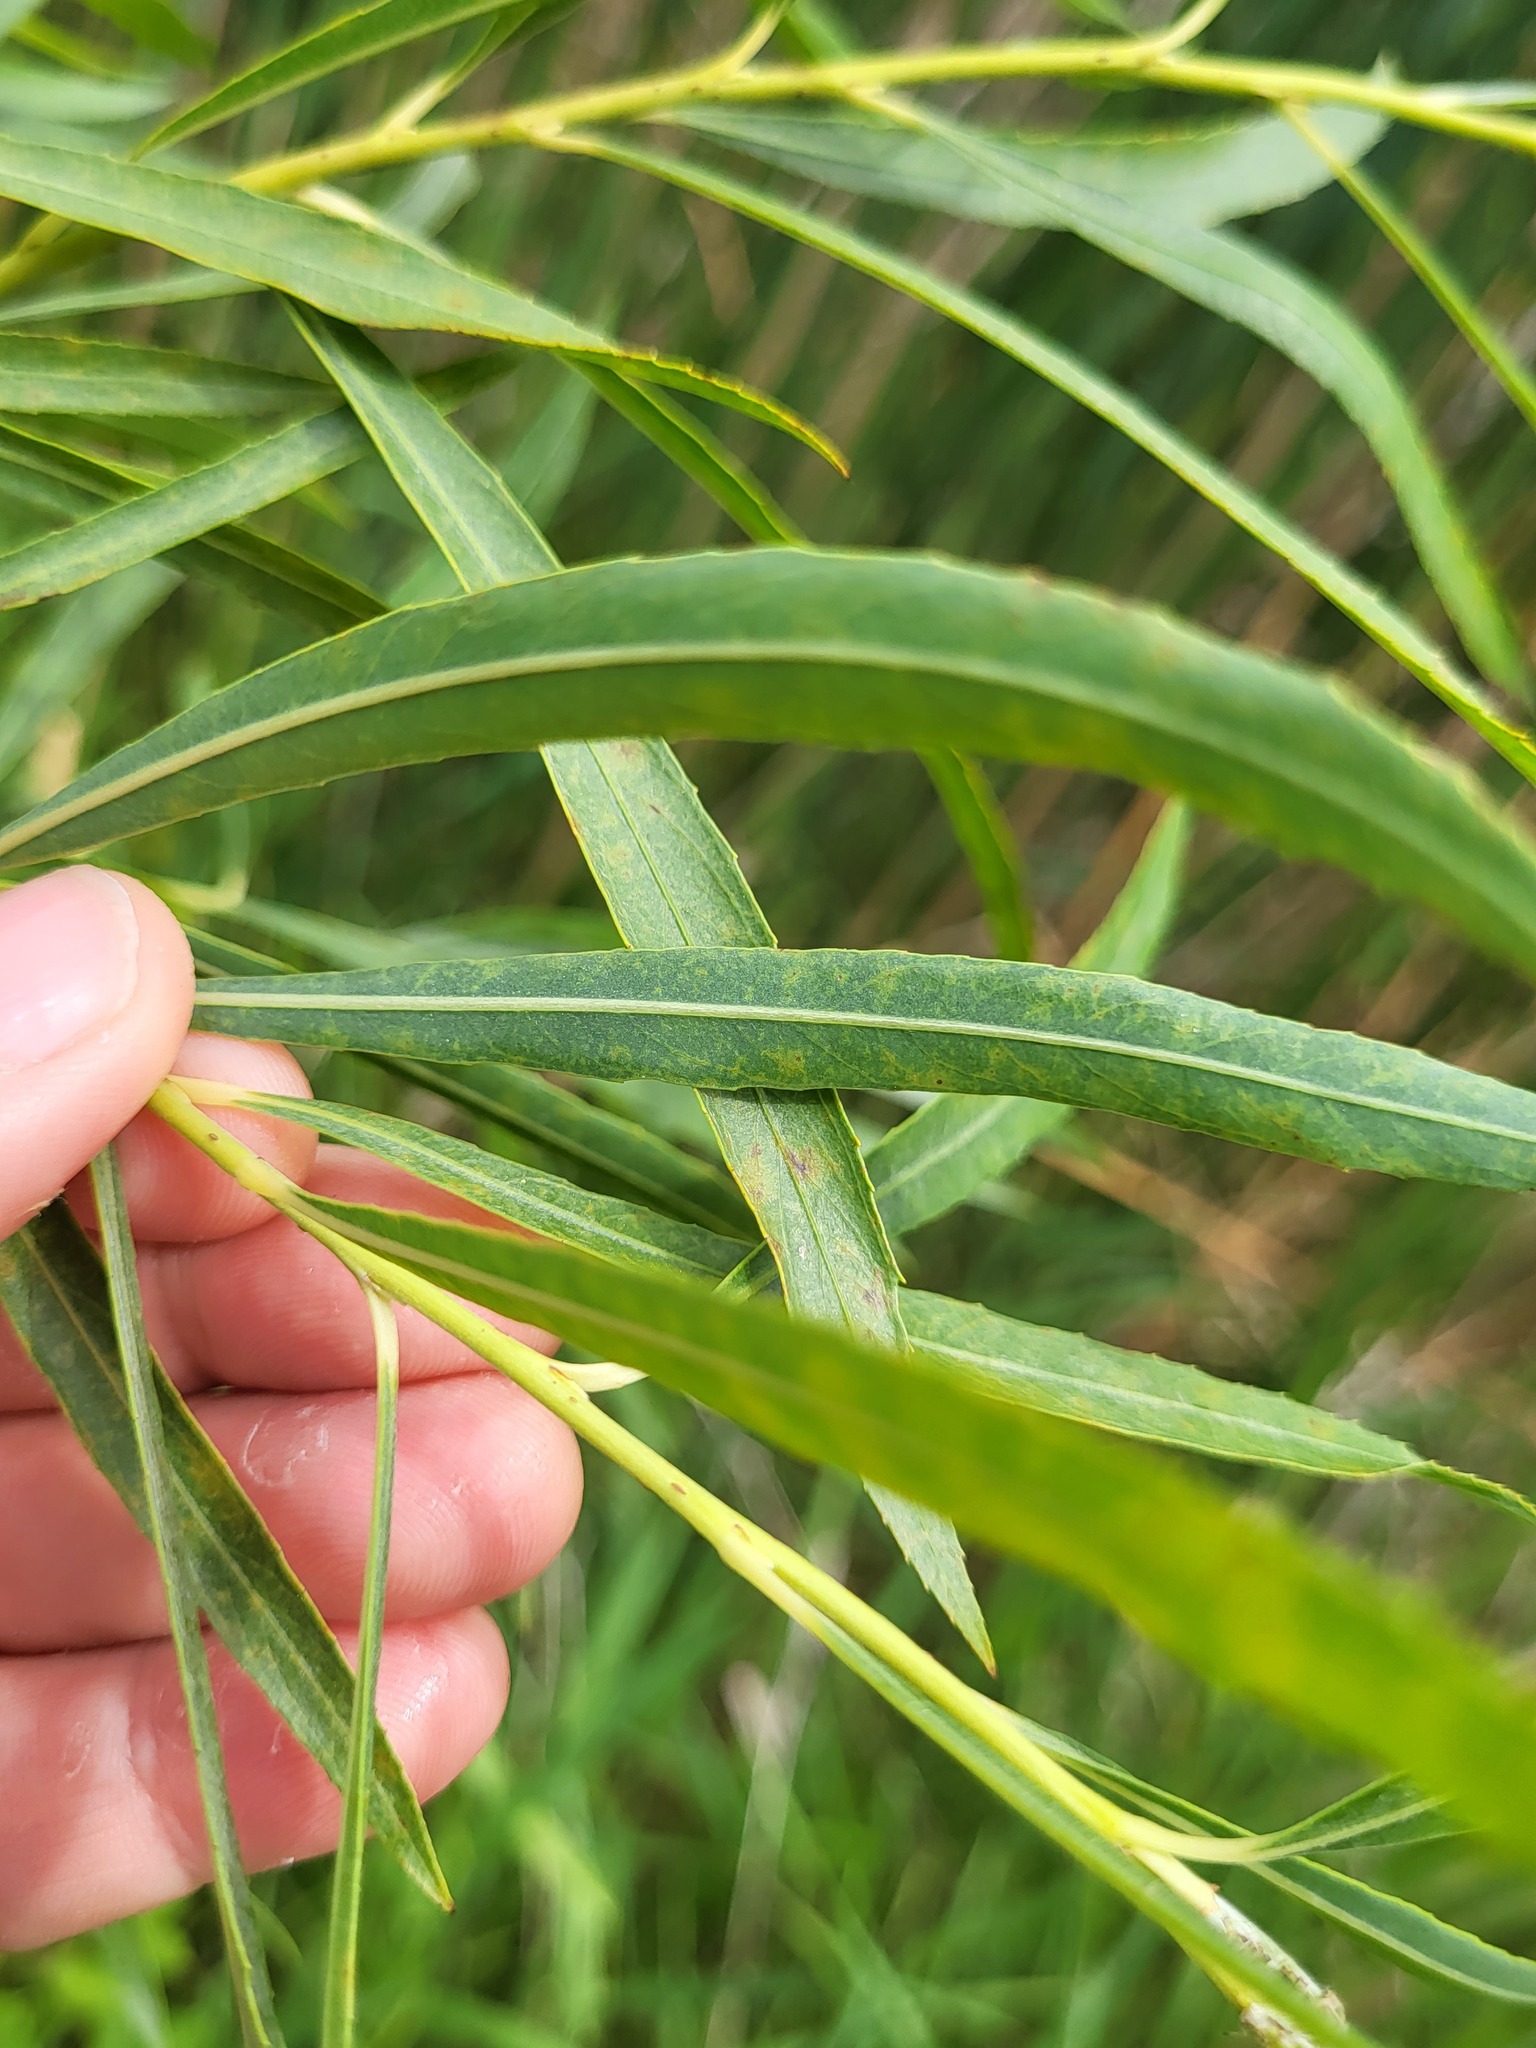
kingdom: Plantae
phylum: Tracheophyta
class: Magnoliopsida
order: Malpighiales
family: Salicaceae
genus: Salix
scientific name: Salix interior
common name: Sandbar willow
